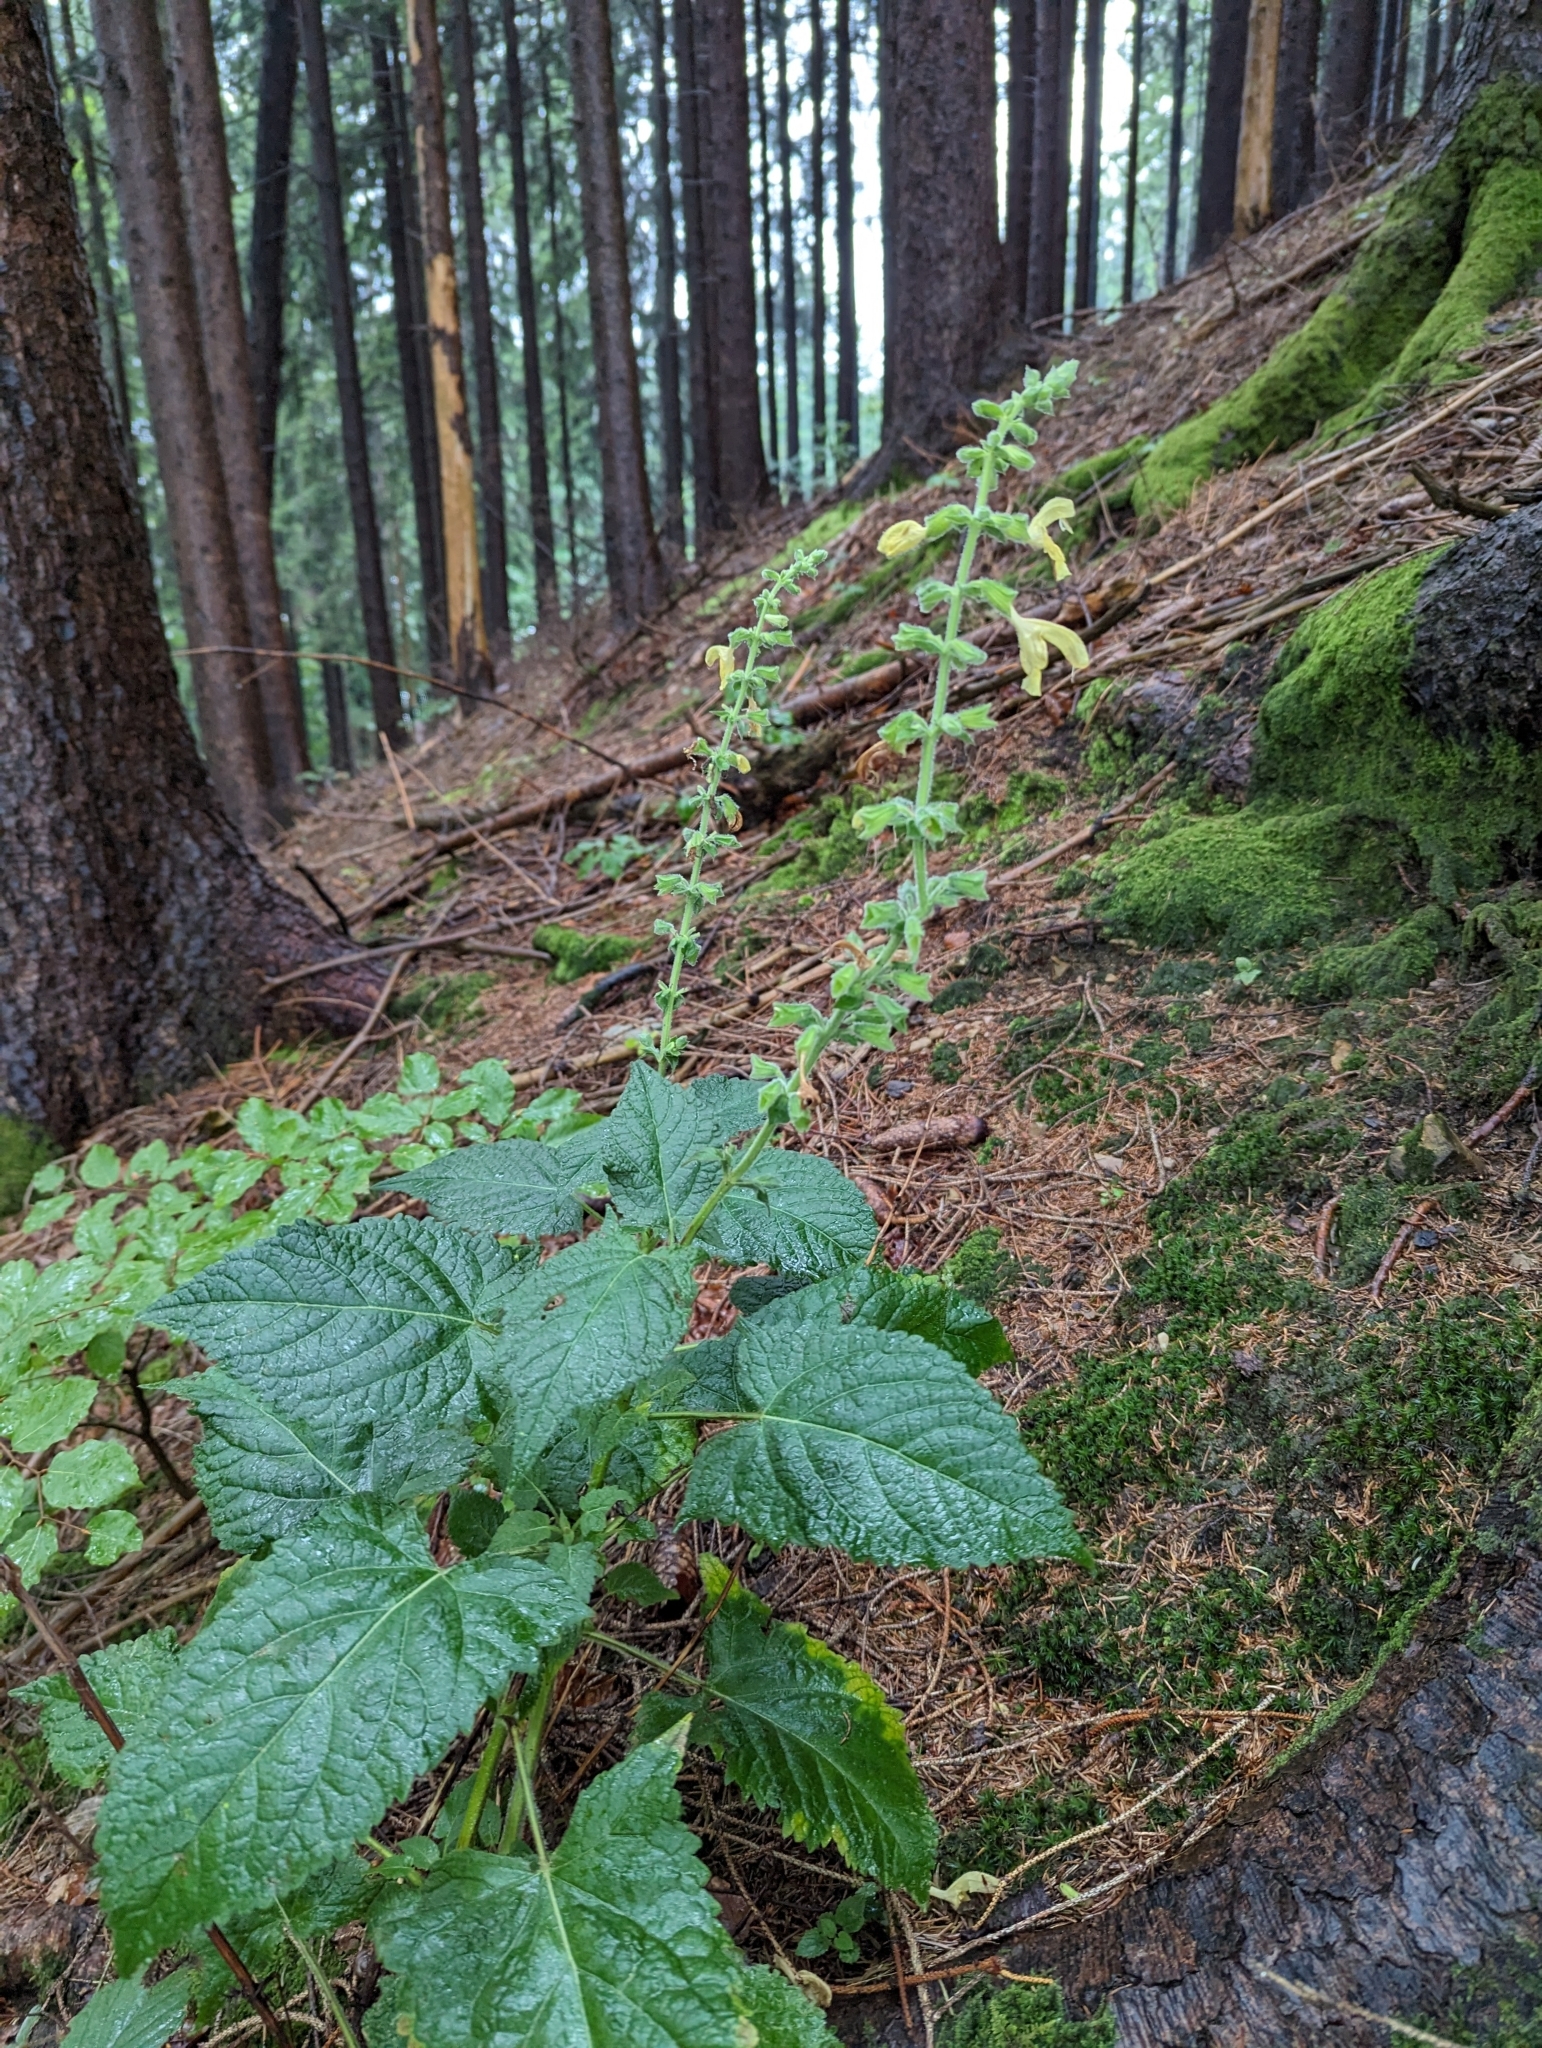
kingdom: Plantae
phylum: Tracheophyta
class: Magnoliopsida
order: Lamiales
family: Lamiaceae
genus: Salvia
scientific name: Salvia glutinosa
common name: Sticky clary
